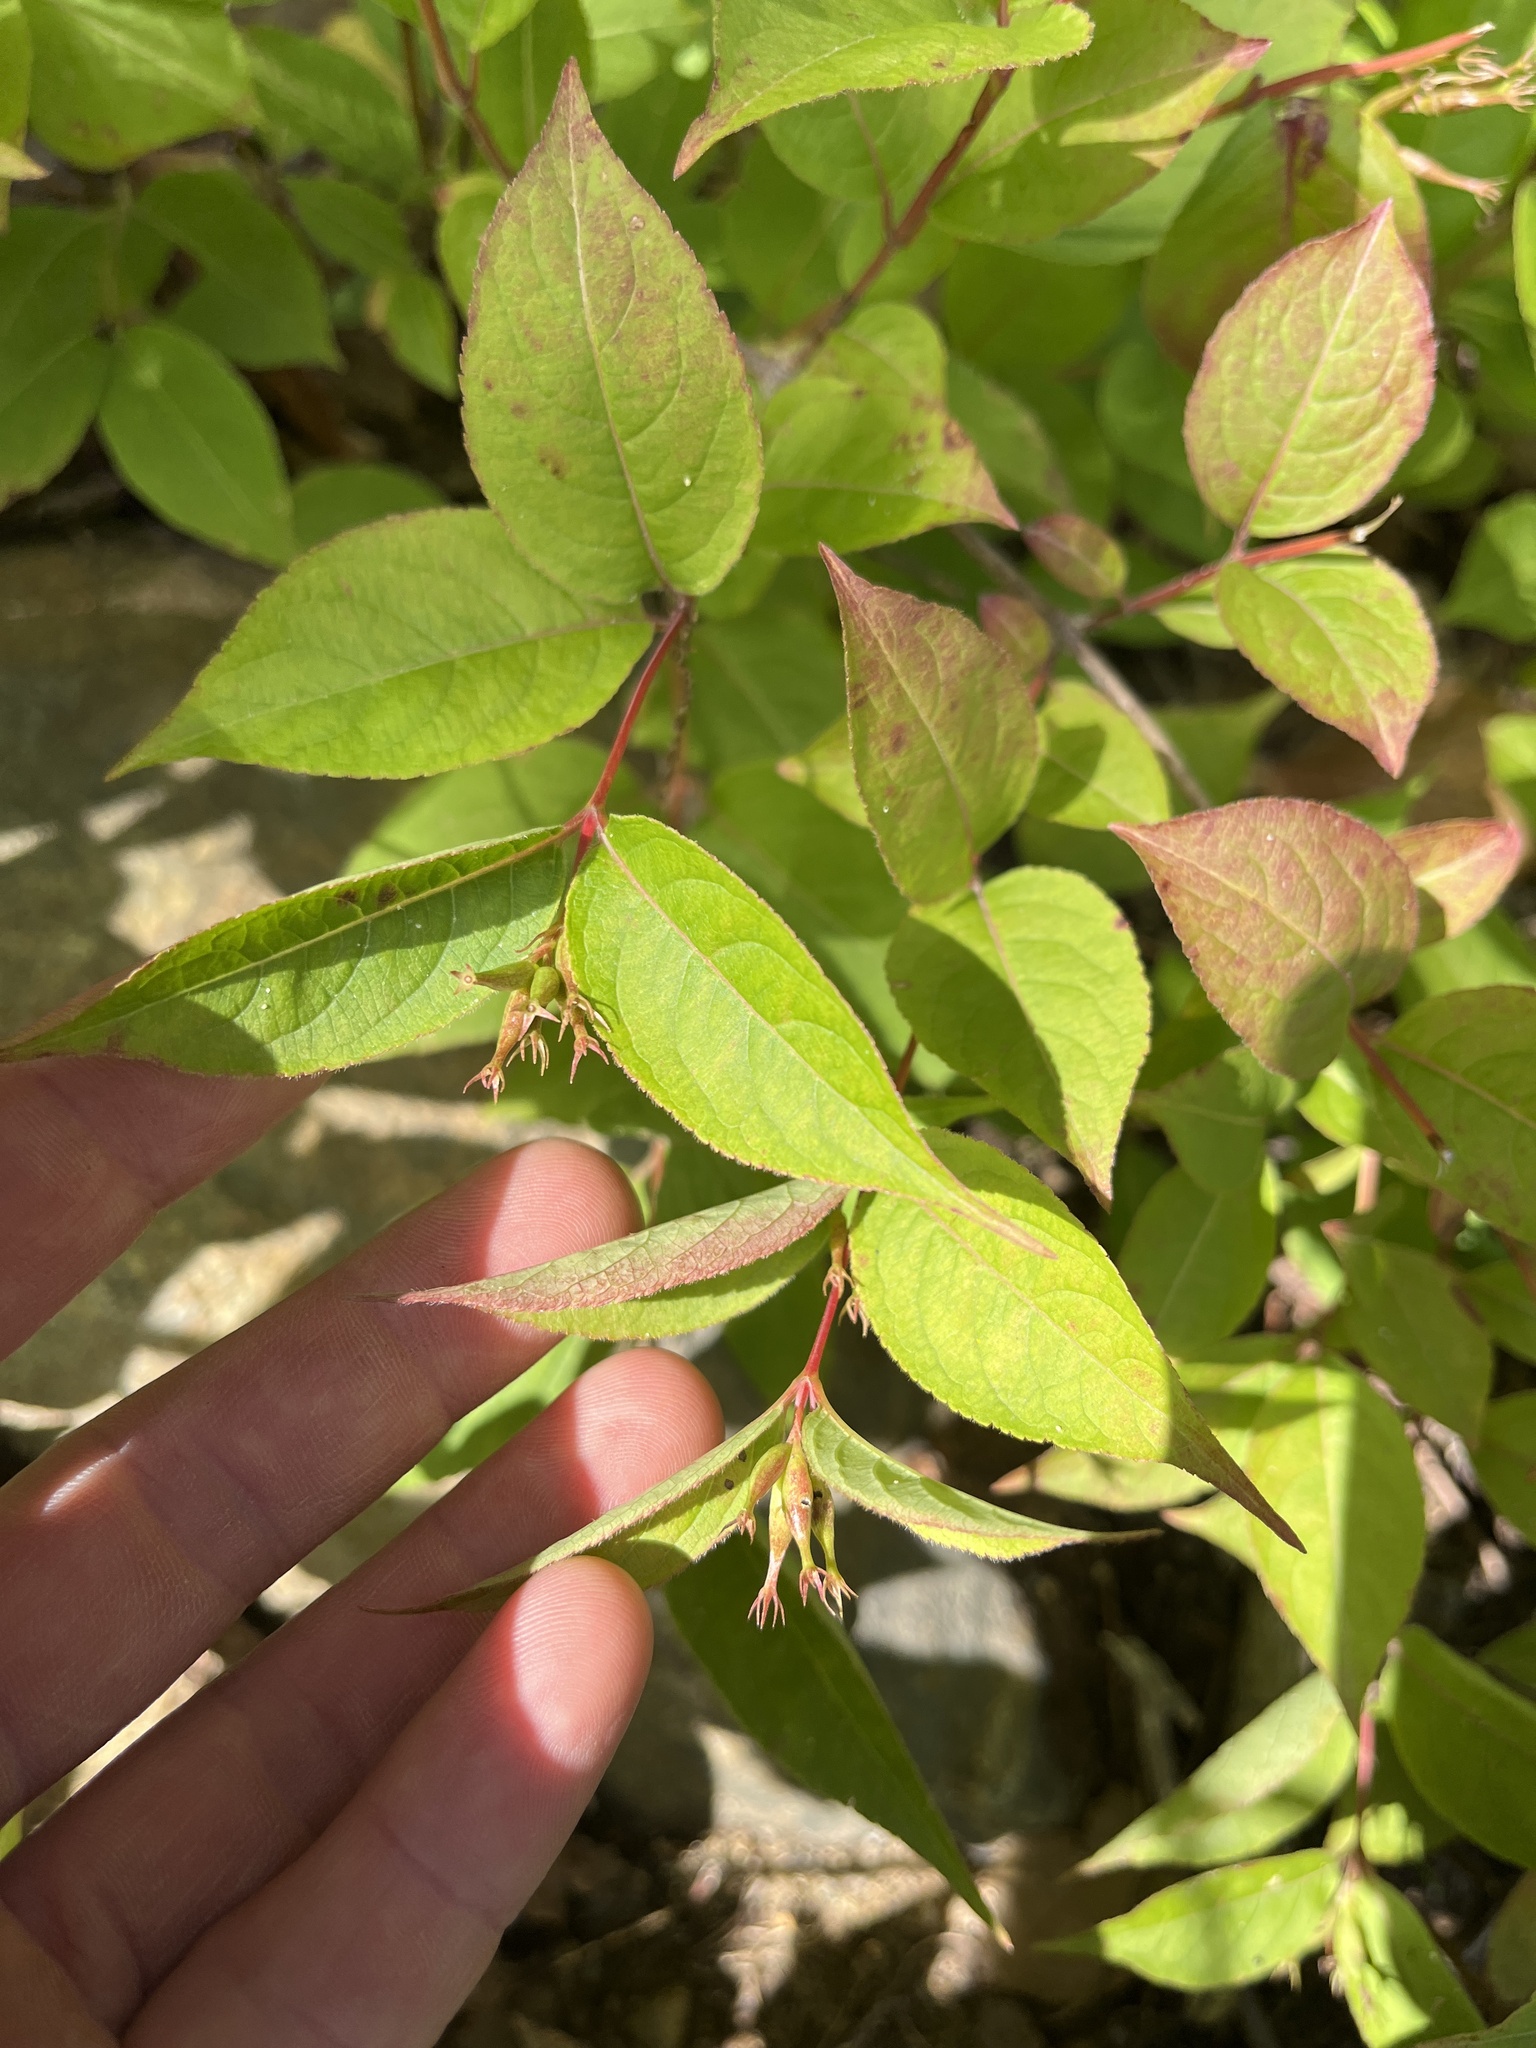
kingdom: Plantae
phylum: Tracheophyta
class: Magnoliopsida
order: Dipsacales
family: Caprifoliaceae
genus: Diervilla
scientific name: Diervilla lonicera
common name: Bush-honeysuckle
